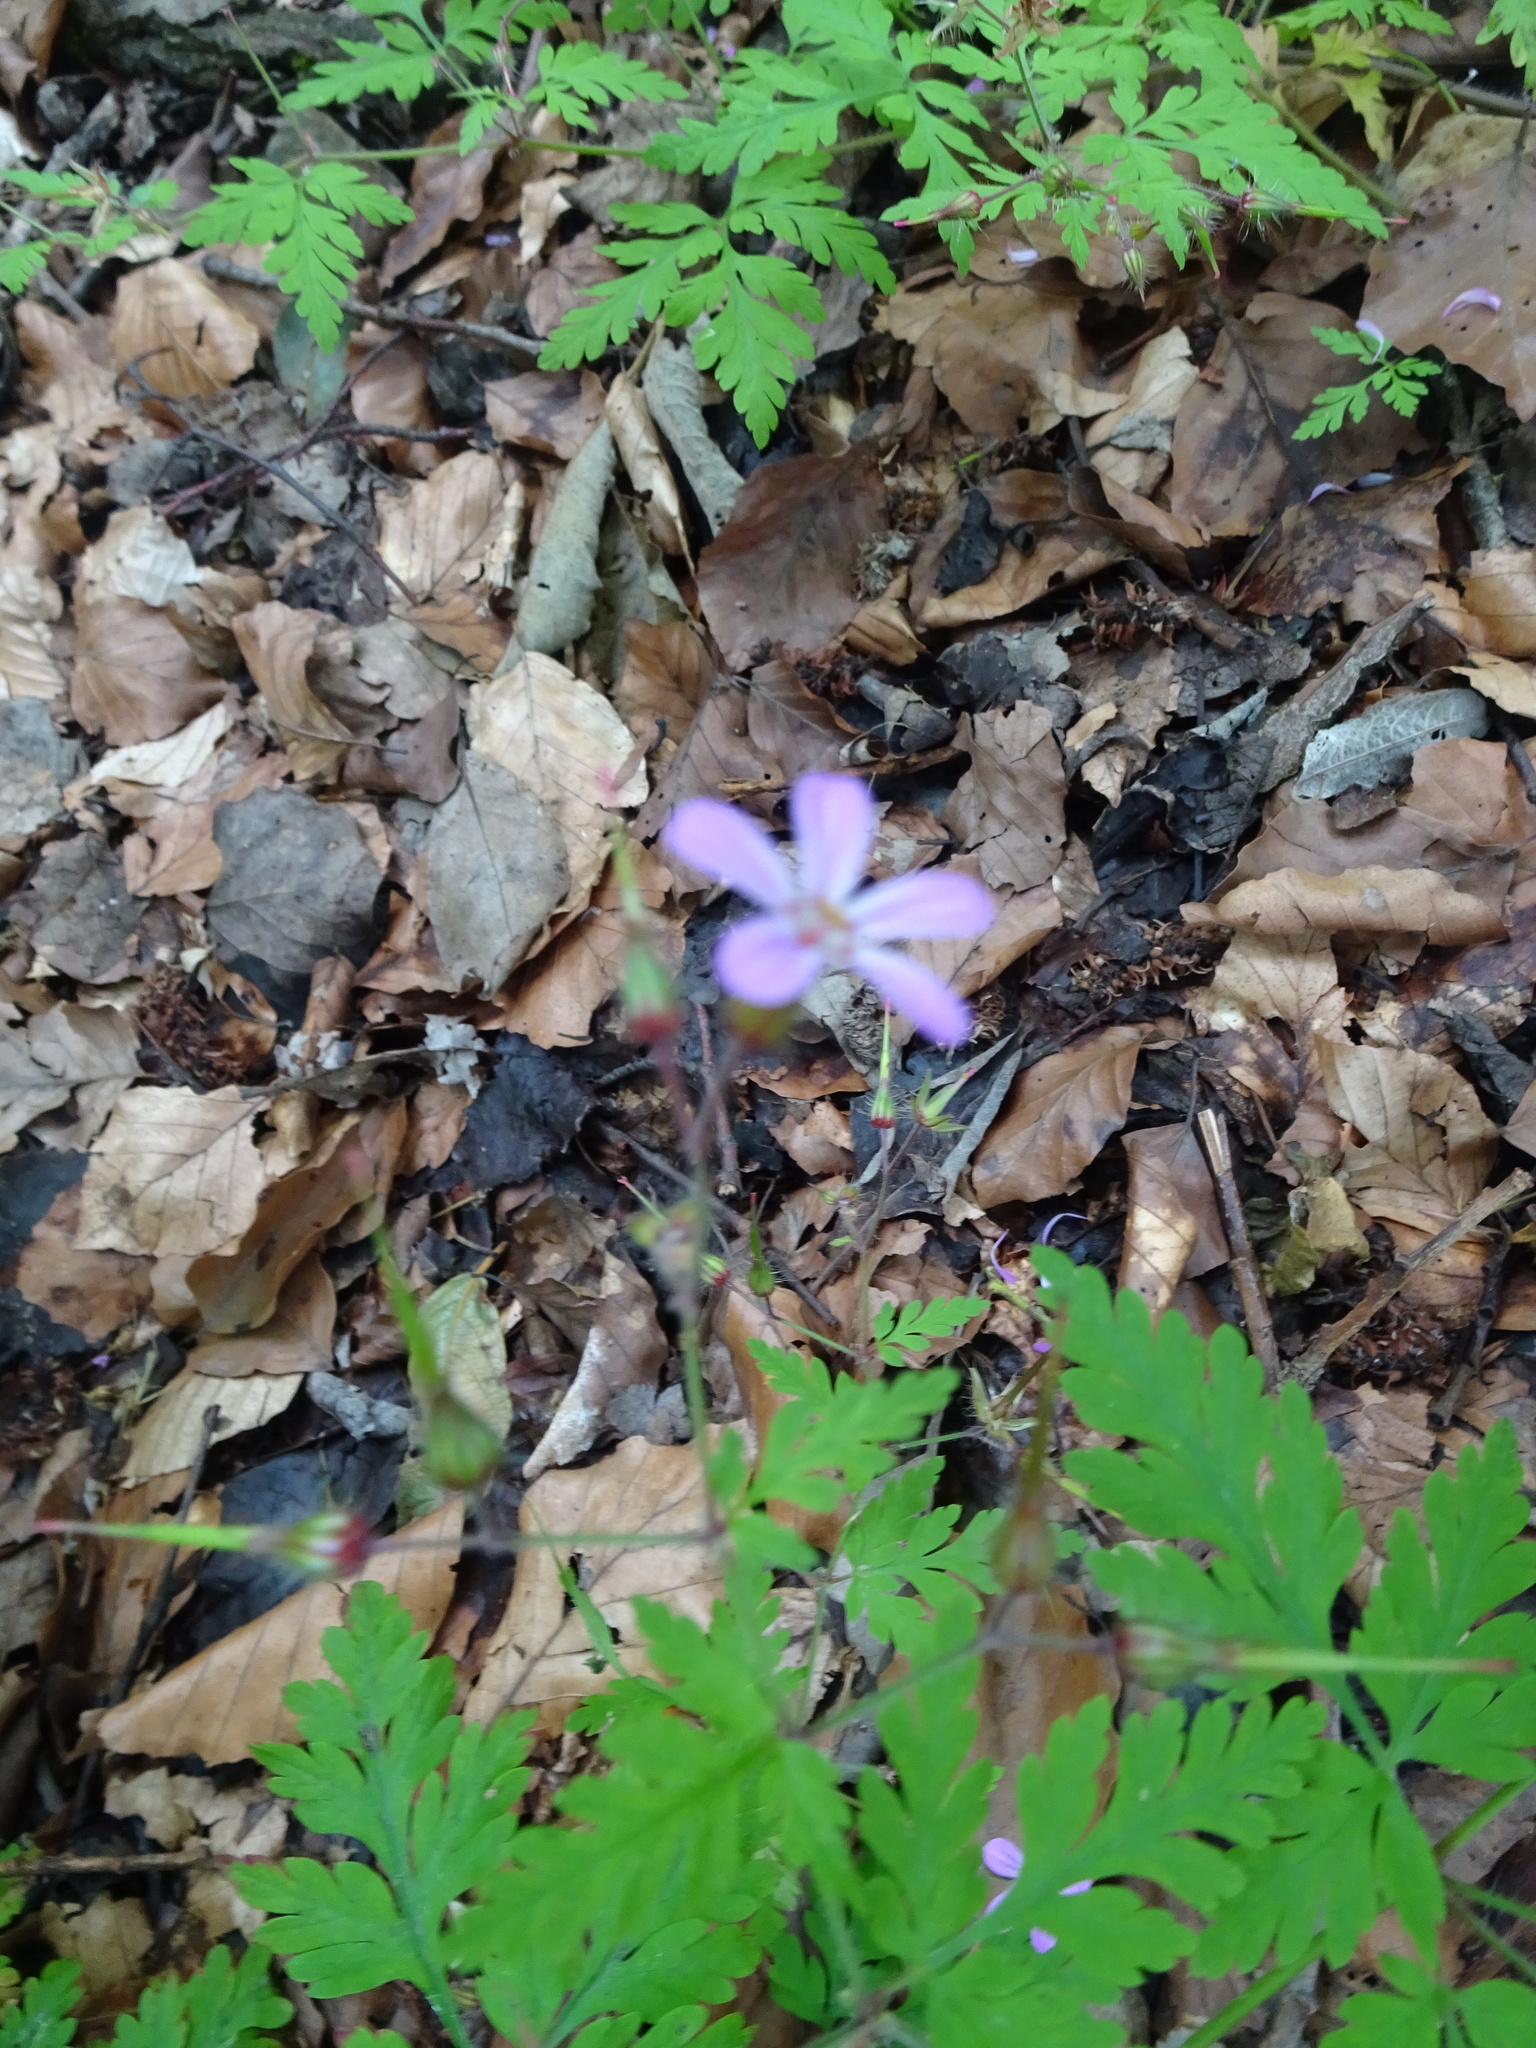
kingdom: Plantae
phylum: Tracheophyta
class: Magnoliopsida
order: Geraniales
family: Geraniaceae
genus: Geranium
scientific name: Geranium robertianum
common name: Herb-robert
